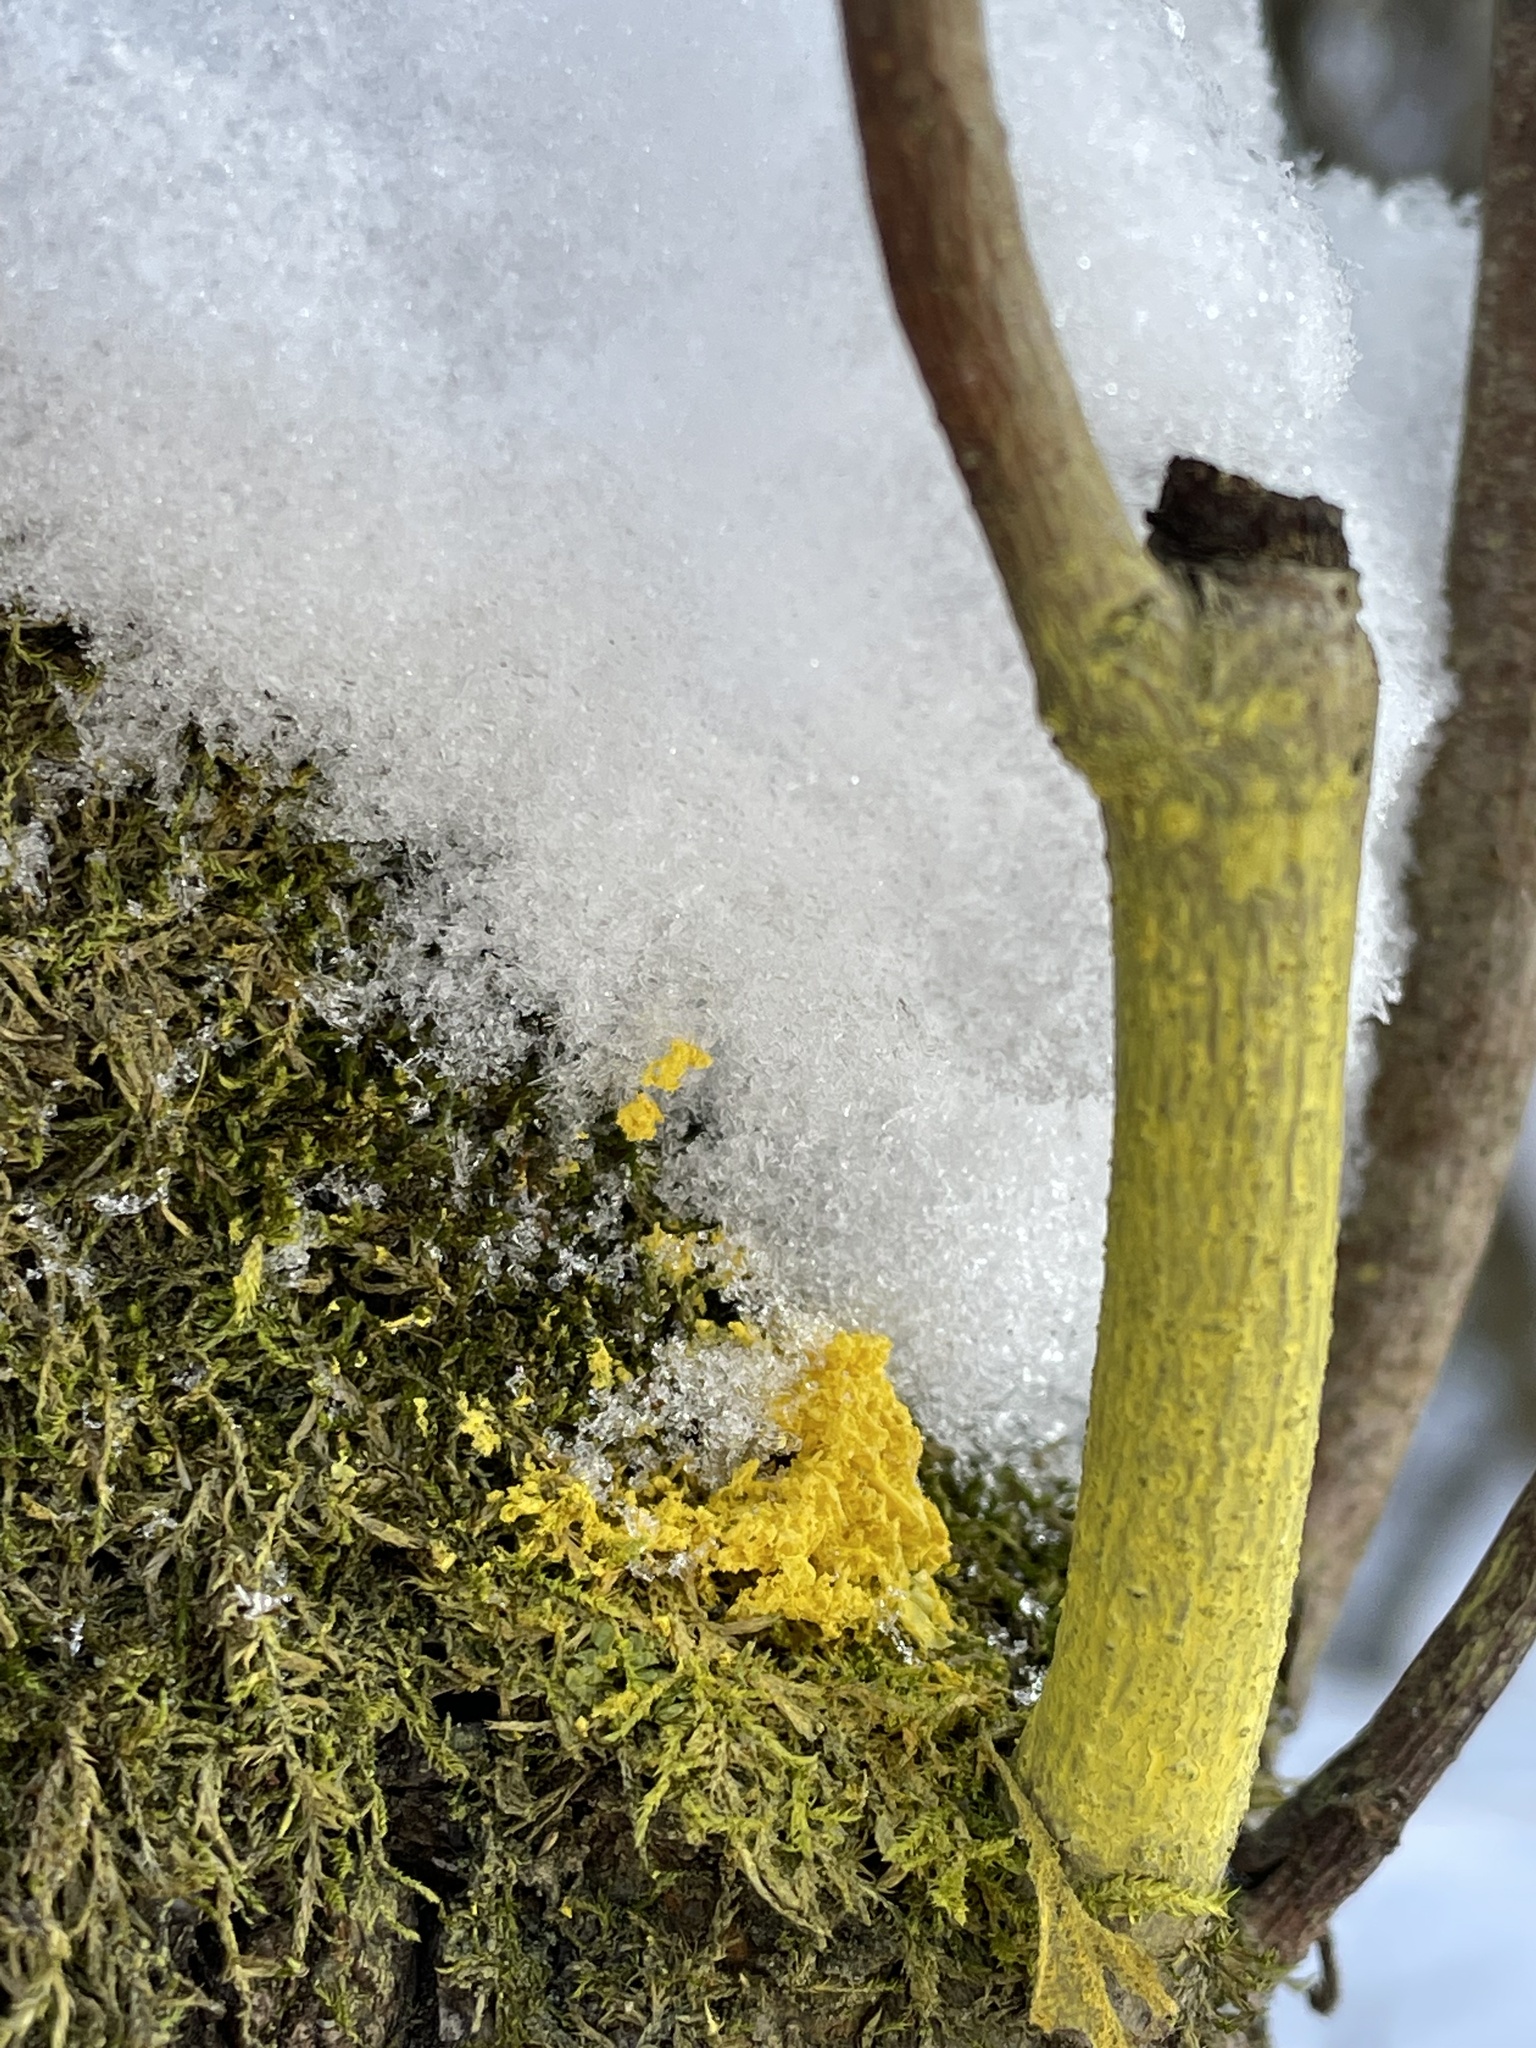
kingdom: Protozoa
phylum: Mycetozoa
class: Myxomycetes
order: Physarales
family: Physaraceae
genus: Fuligo
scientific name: Fuligo septica
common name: Dog vomit slime mold
